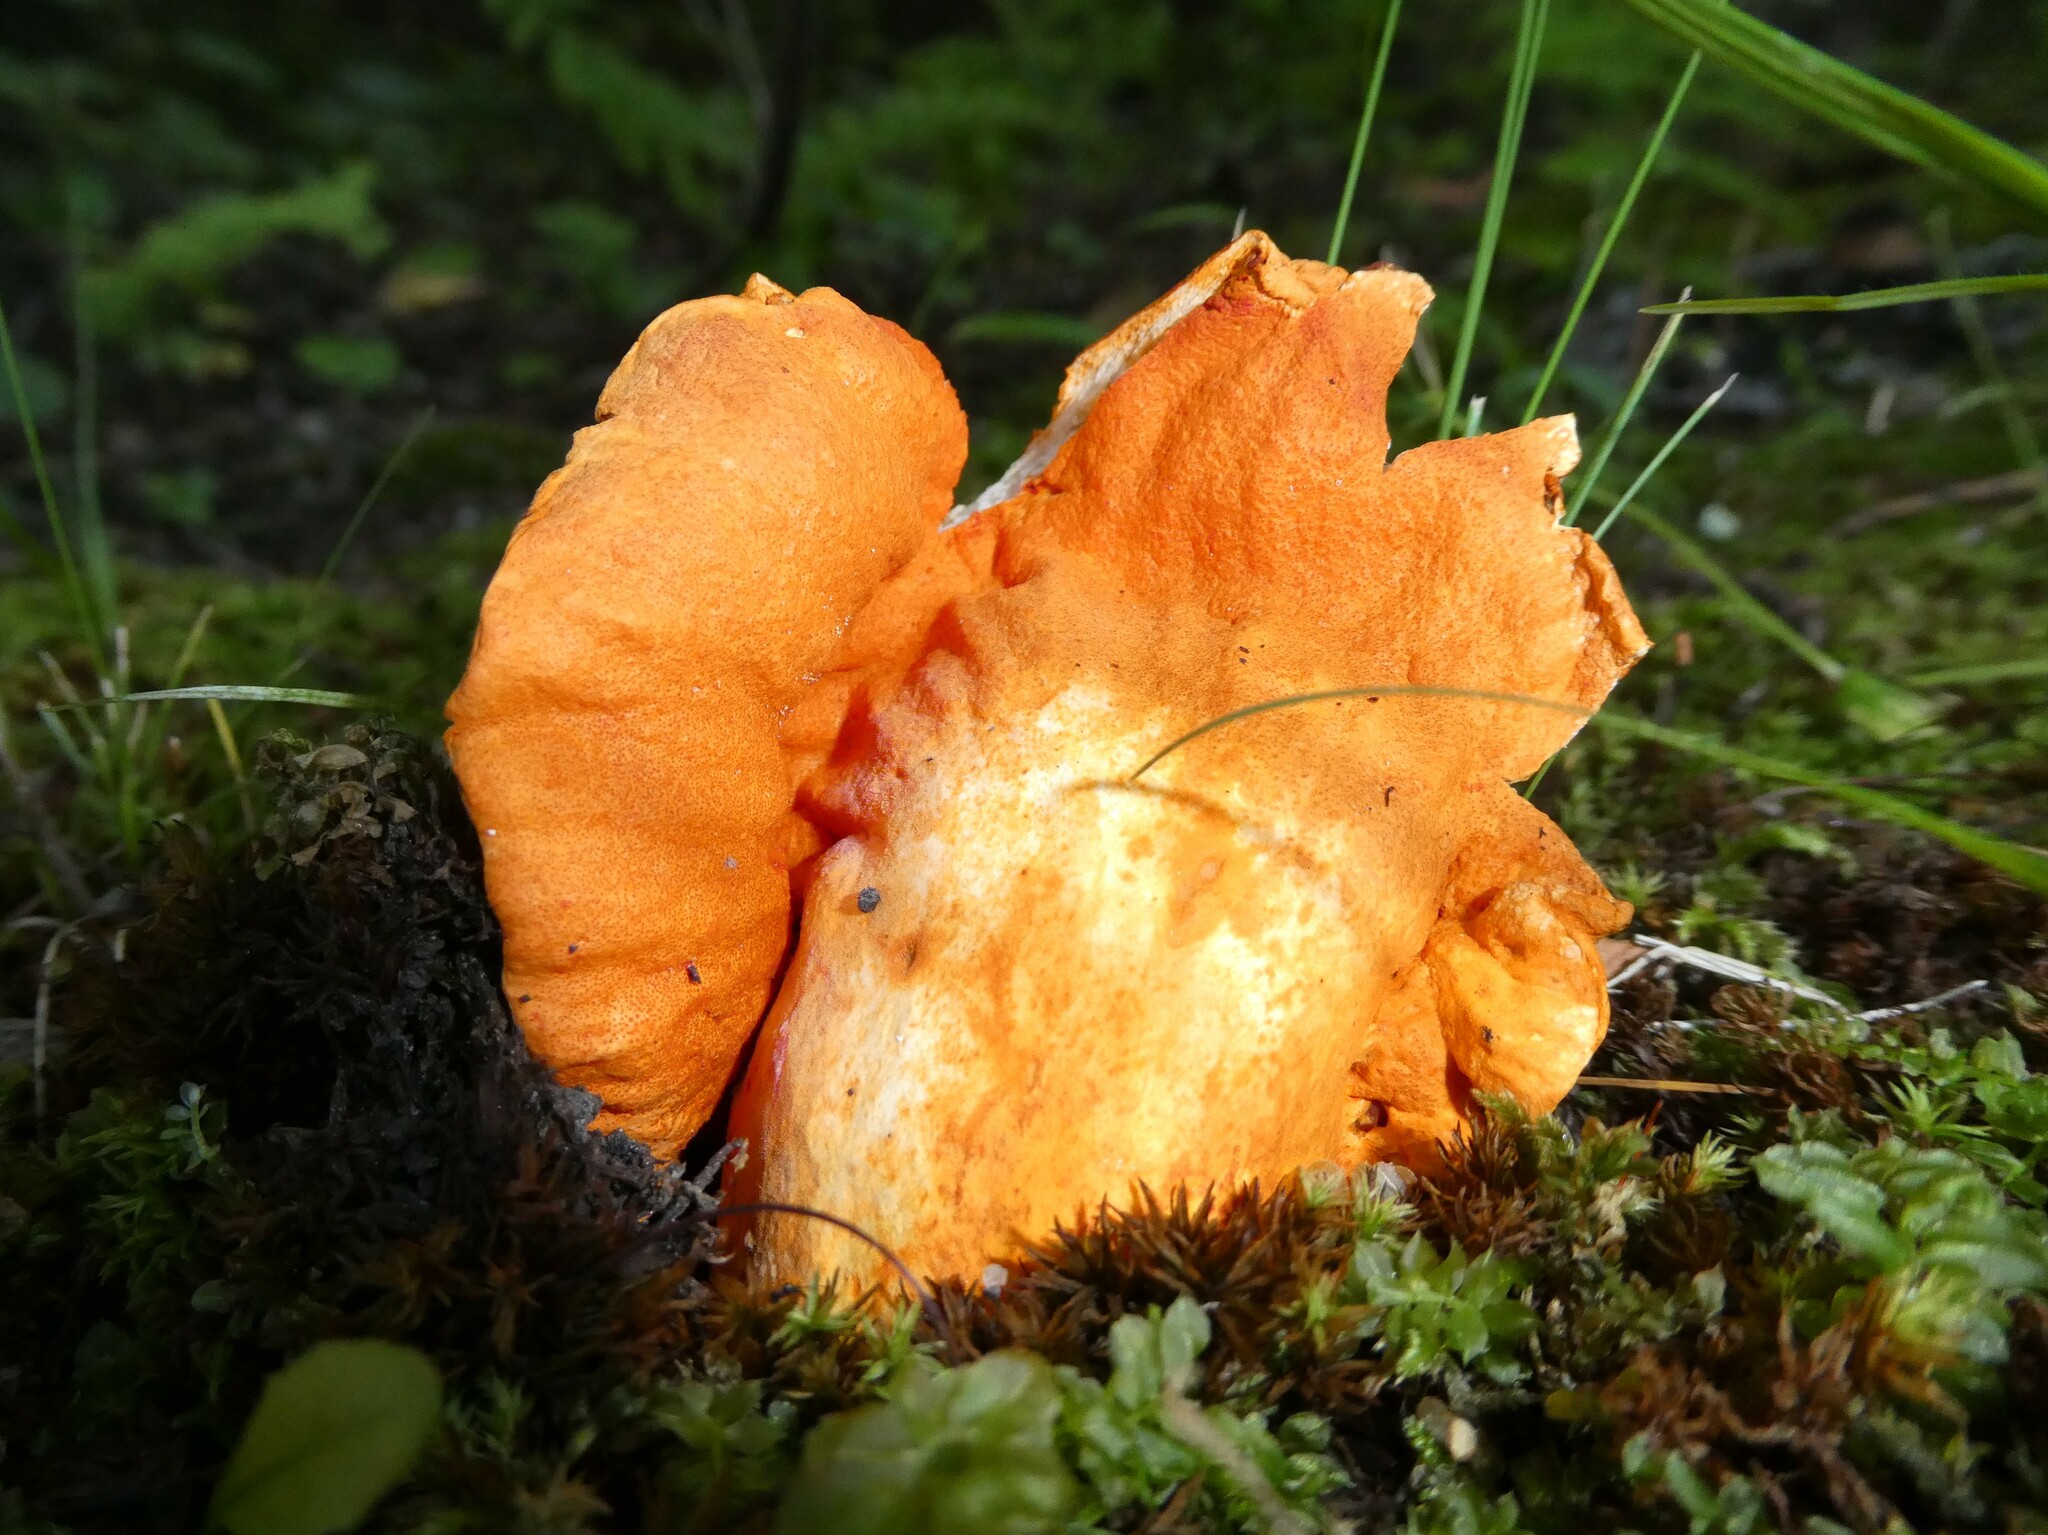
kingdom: Fungi
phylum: Ascomycota
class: Sordariomycetes
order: Hypocreales
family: Hypocreaceae
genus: Hypomyces
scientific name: Hypomyces lactifluorum
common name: Lobster mushroom
